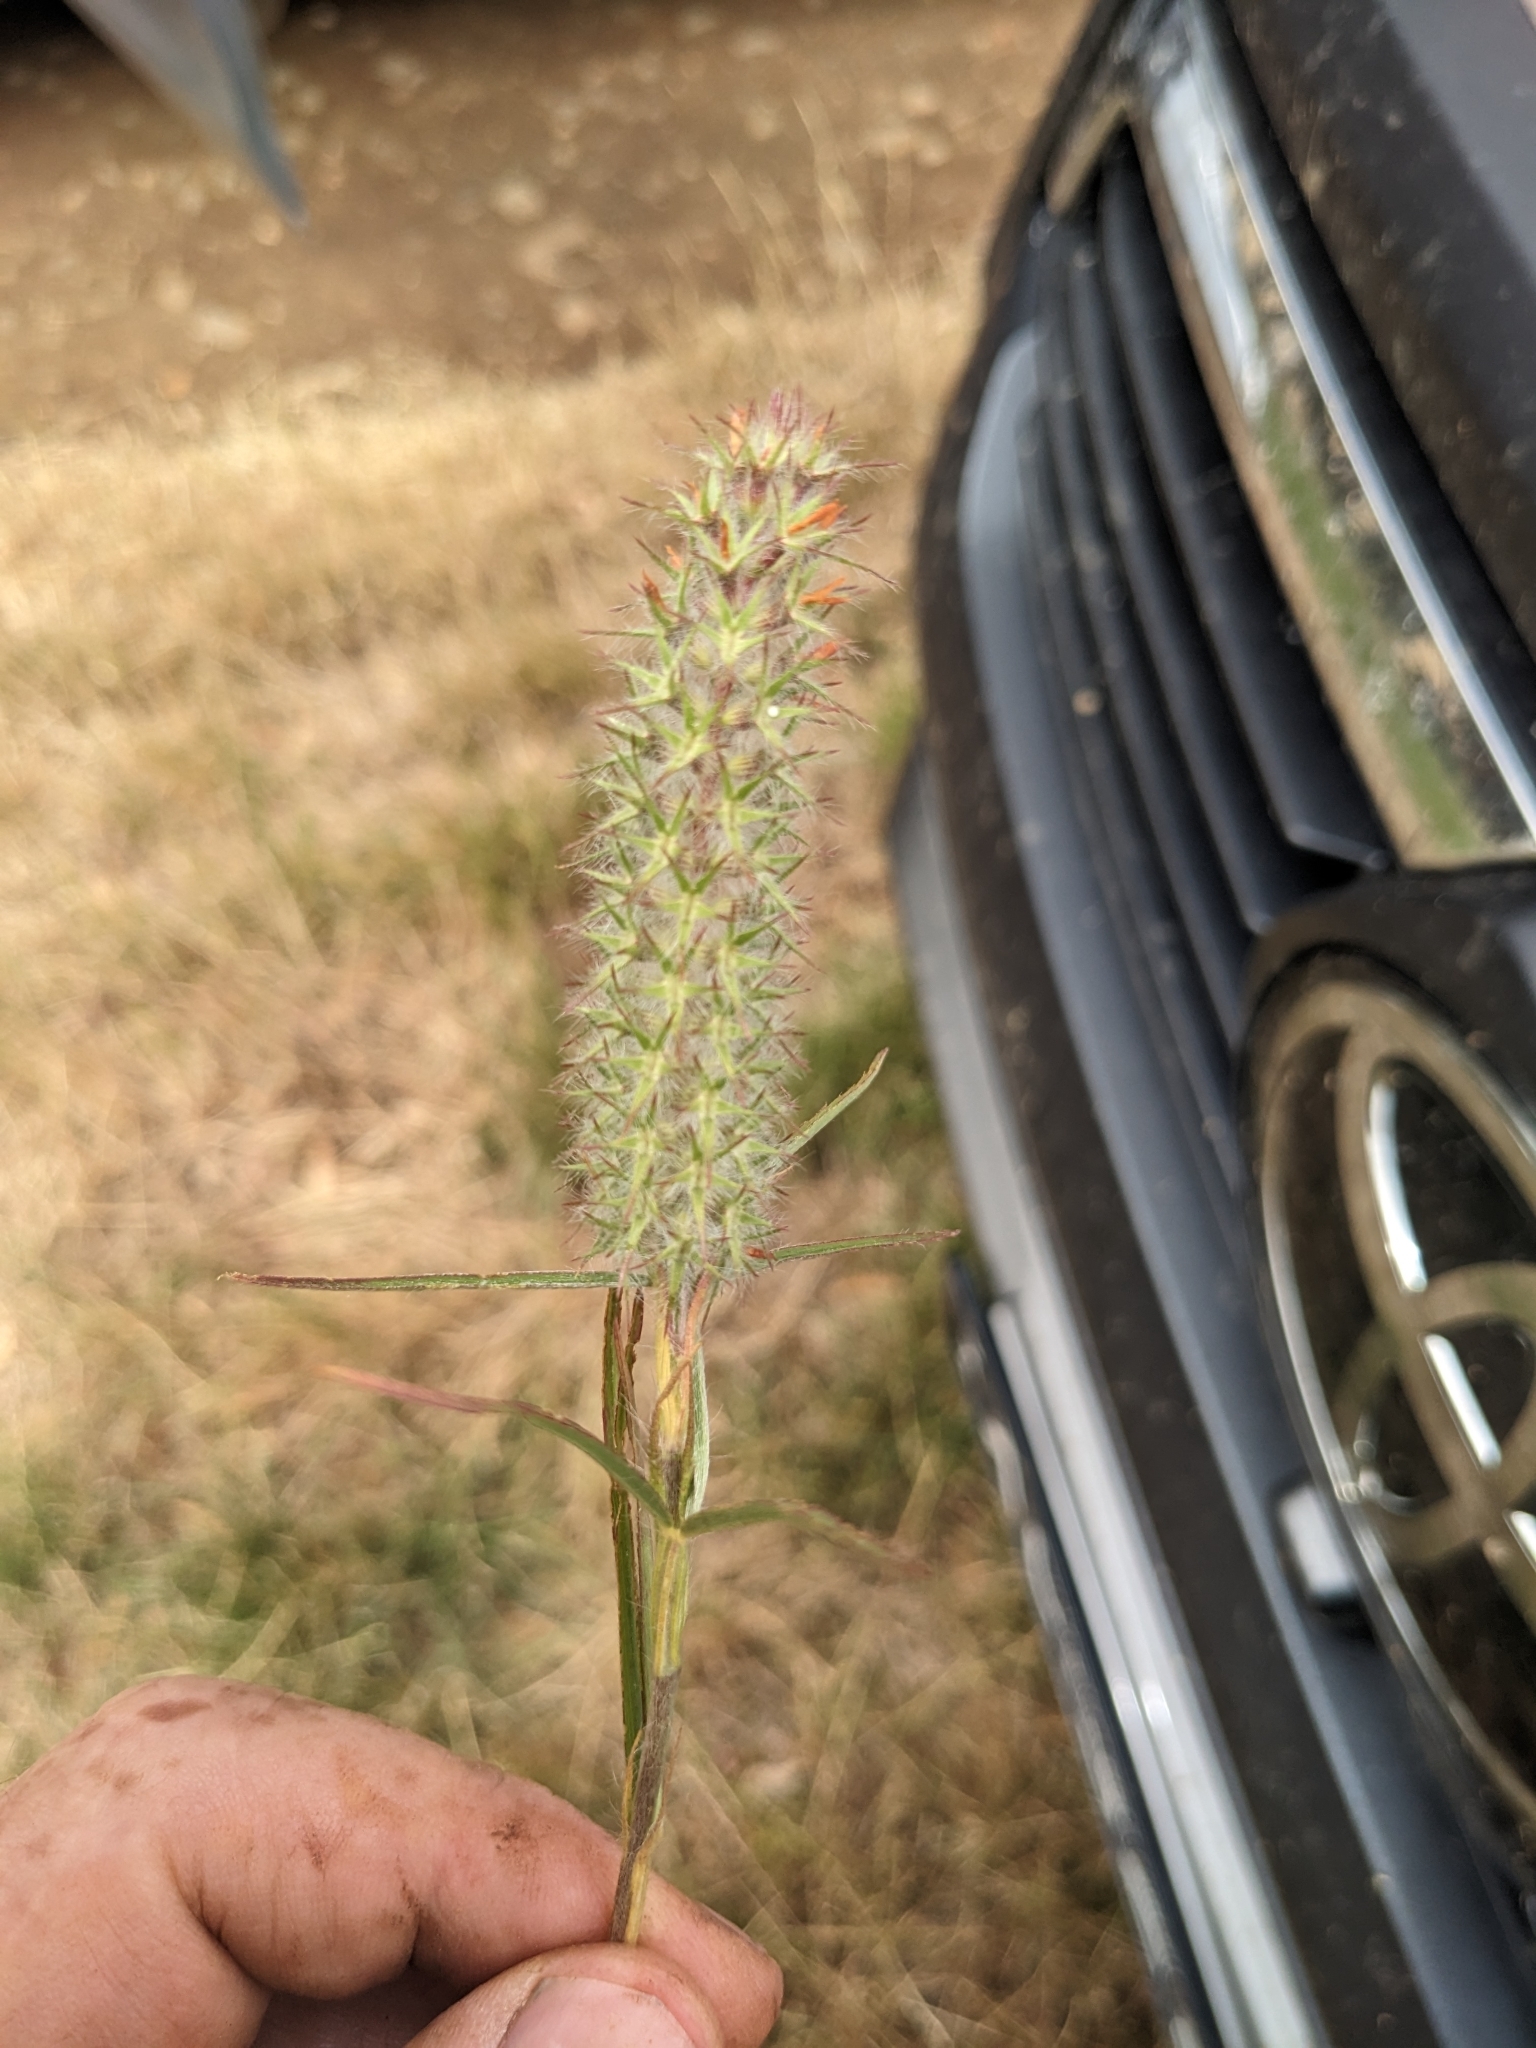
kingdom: Plantae
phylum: Tracheophyta
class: Magnoliopsida
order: Fabales
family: Fabaceae
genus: Trifolium
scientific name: Trifolium angustifolium
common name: Narrow clover
